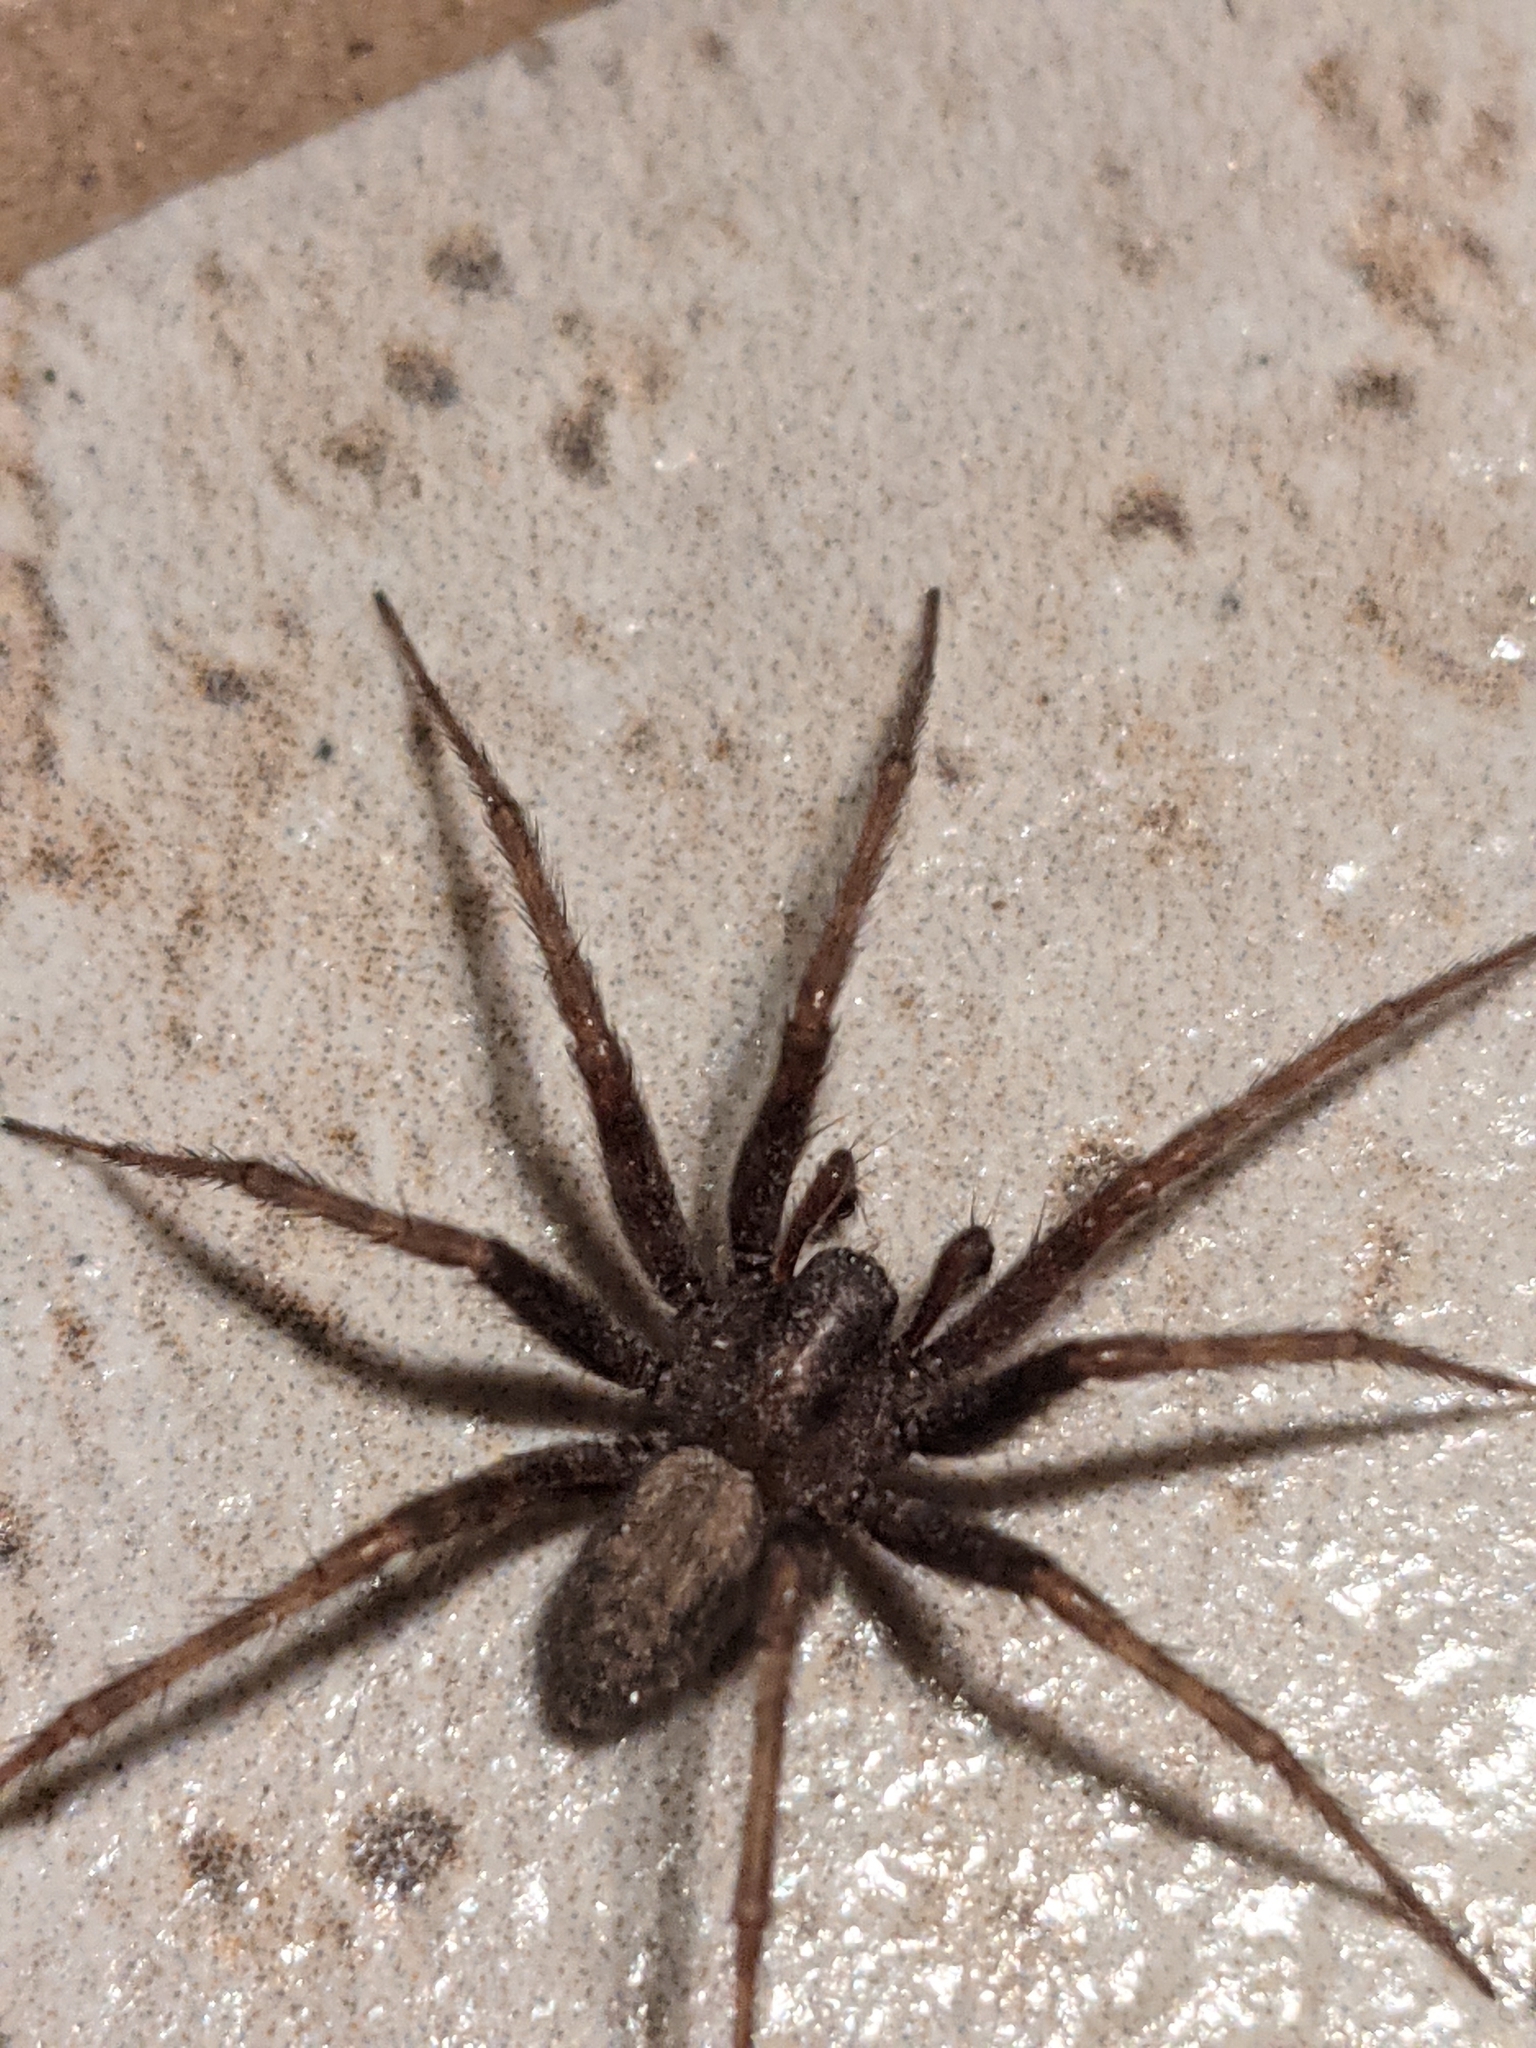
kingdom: Animalia
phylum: Arthropoda
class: Arachnida
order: Araneae
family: Agelenidae
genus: Tegenaria
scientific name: Tegenaria domestica
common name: Barn funnel weaver
